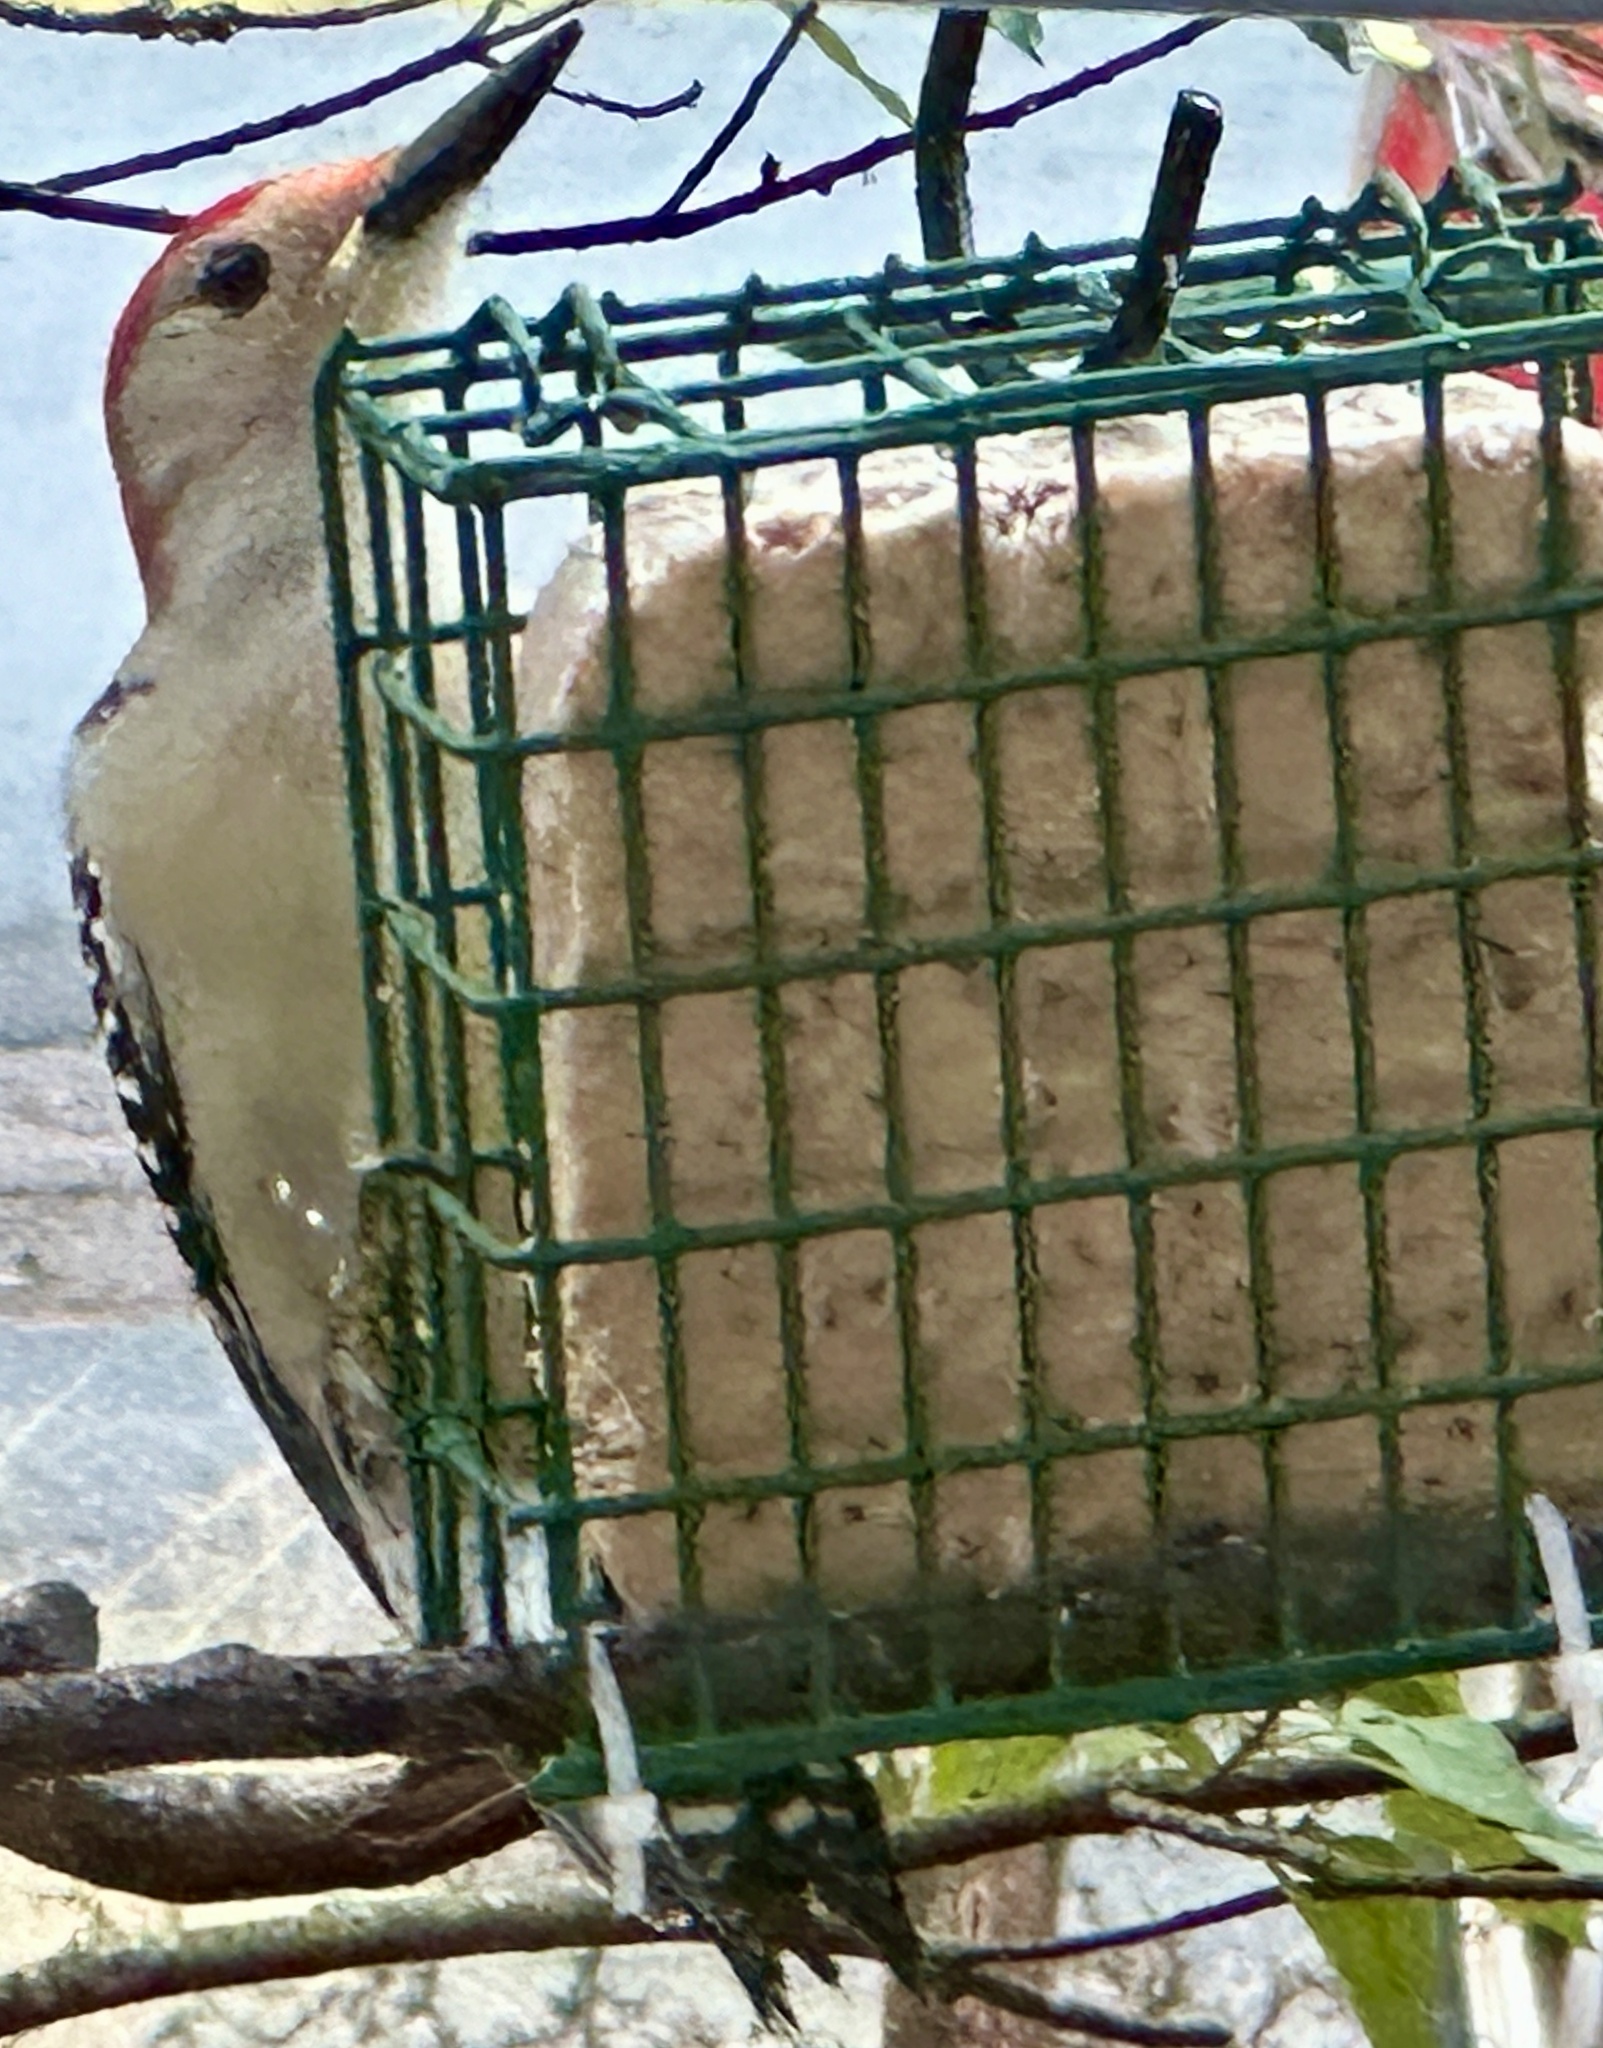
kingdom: Animalia
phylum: Chordata
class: Aves
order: Piciformes
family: Picidae
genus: Melanerpes
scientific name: Melanerpes carolinus
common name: Red-bellied woodpecker
